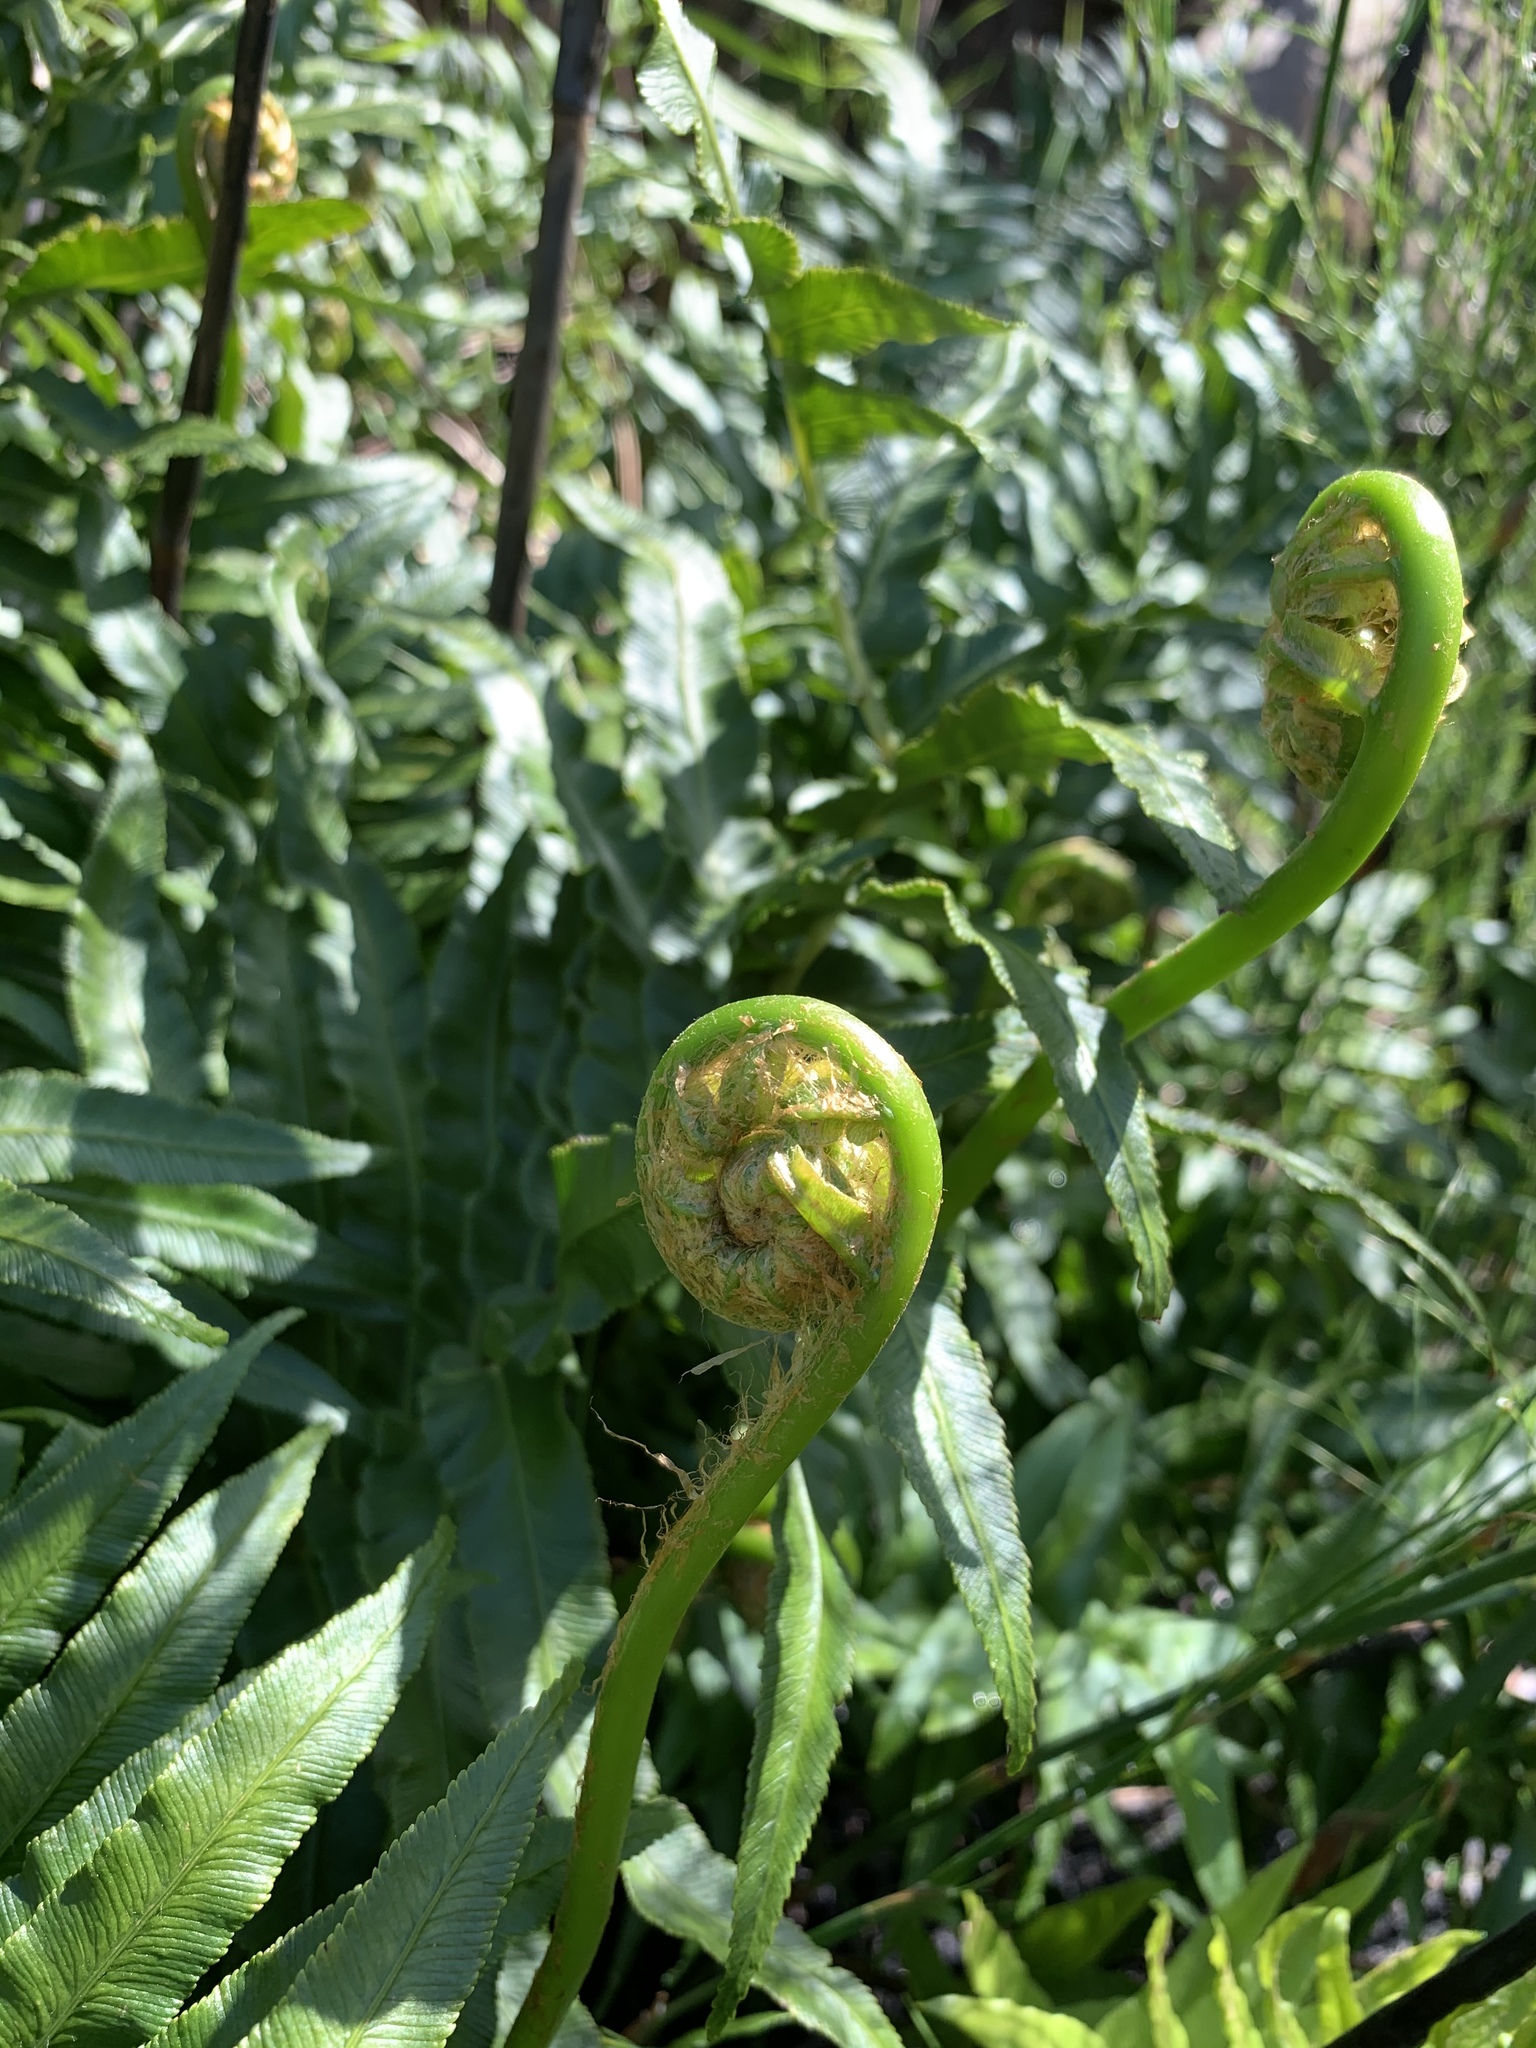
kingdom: Plantae
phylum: Tracheophyta
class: Polypodiopsida
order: Polypodiales
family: Blechnaceae
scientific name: Blechnaceae
